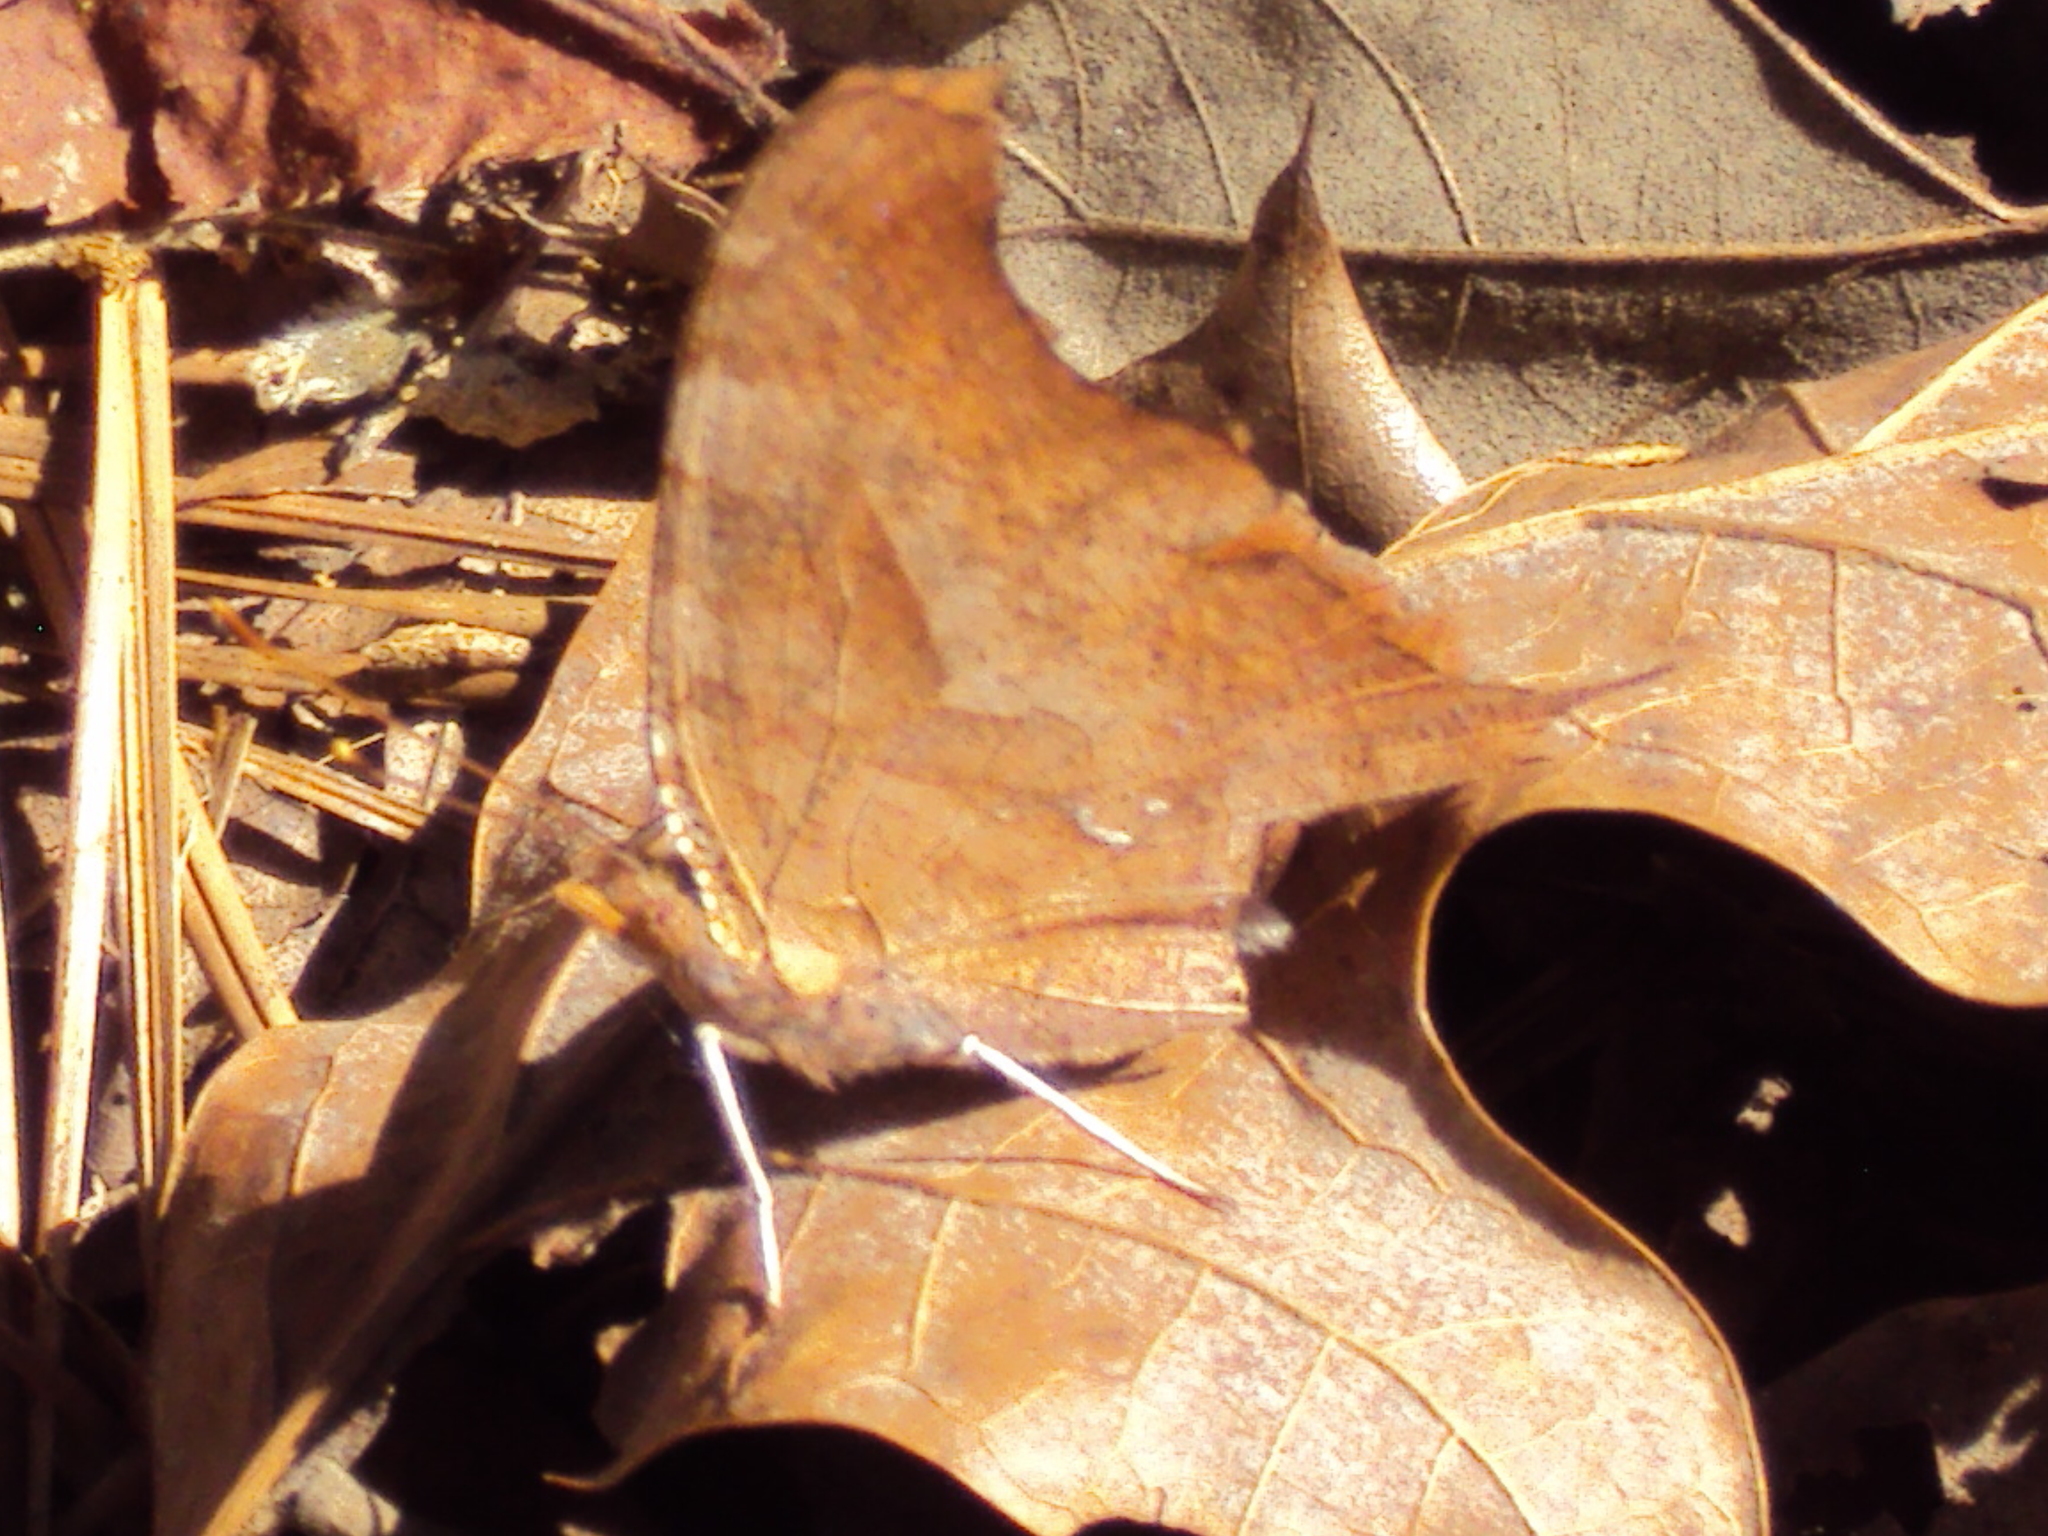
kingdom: Animalia
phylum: Arthropoda
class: Insecta
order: Lepidoptera
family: Nymphalidae
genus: Polygonia
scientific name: Polygonia interrogationis
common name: Question mark
